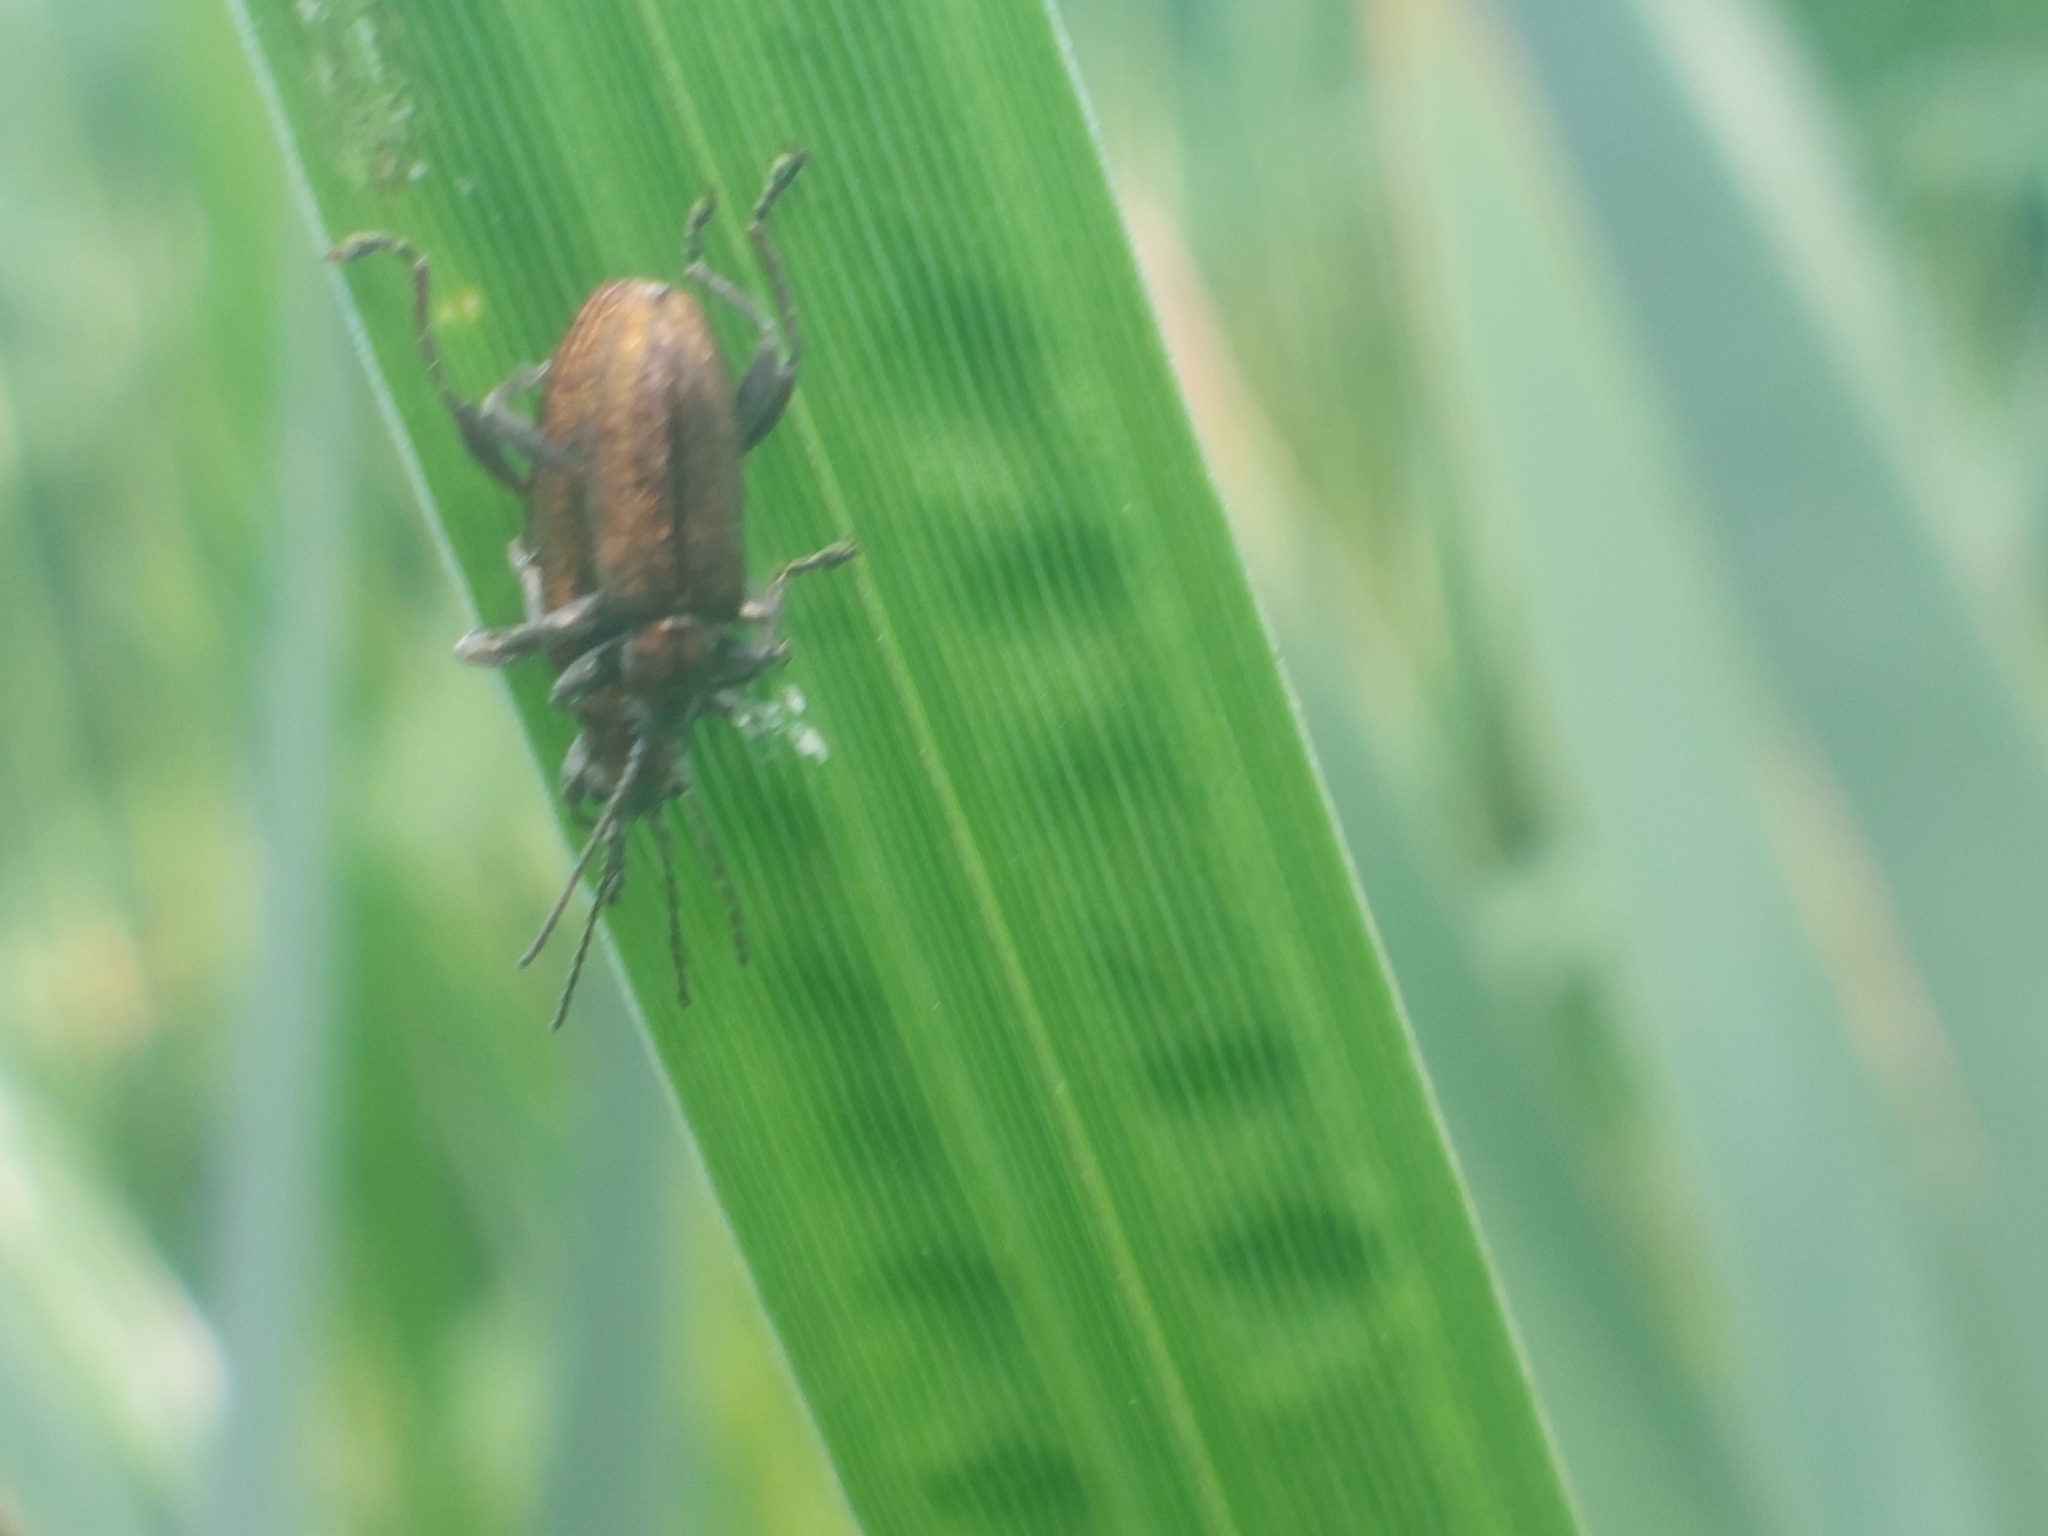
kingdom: Animalia
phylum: Arthropoda
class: Insecta
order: Coleoptera
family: Chrysomelidae
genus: Donacia
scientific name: Donacia semicuprea
